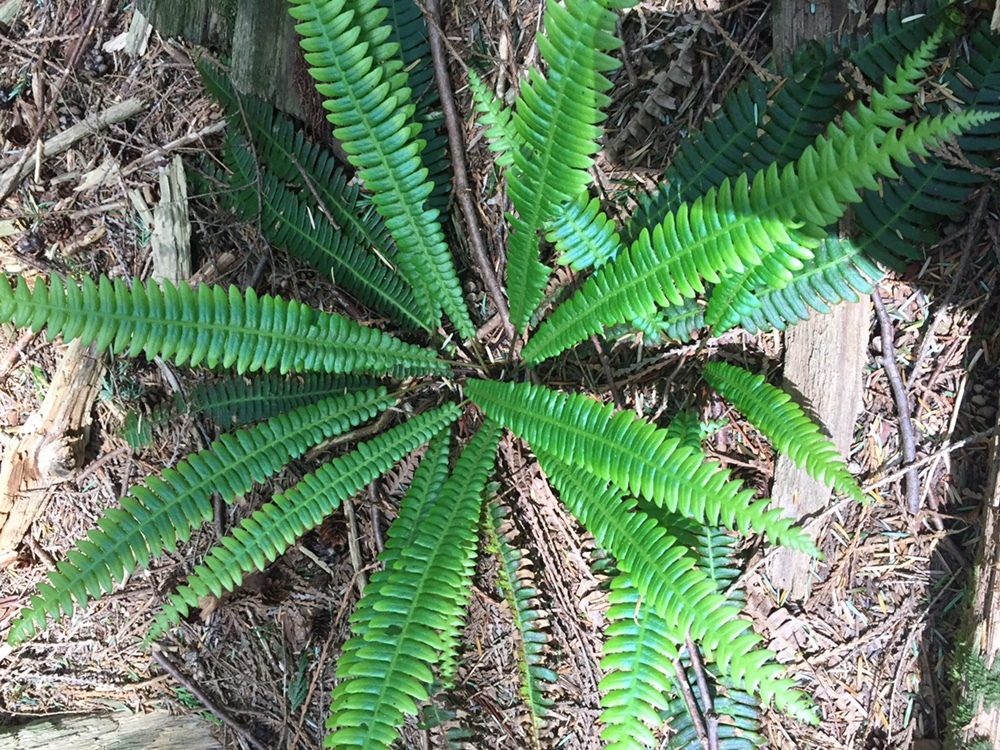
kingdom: Plantae
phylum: Tracheophyta
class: Polypodiopsida
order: Polypodiales
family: Blechnaceae
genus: Struthiopteris
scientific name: Struthiopteris spicant
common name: Deer fern
